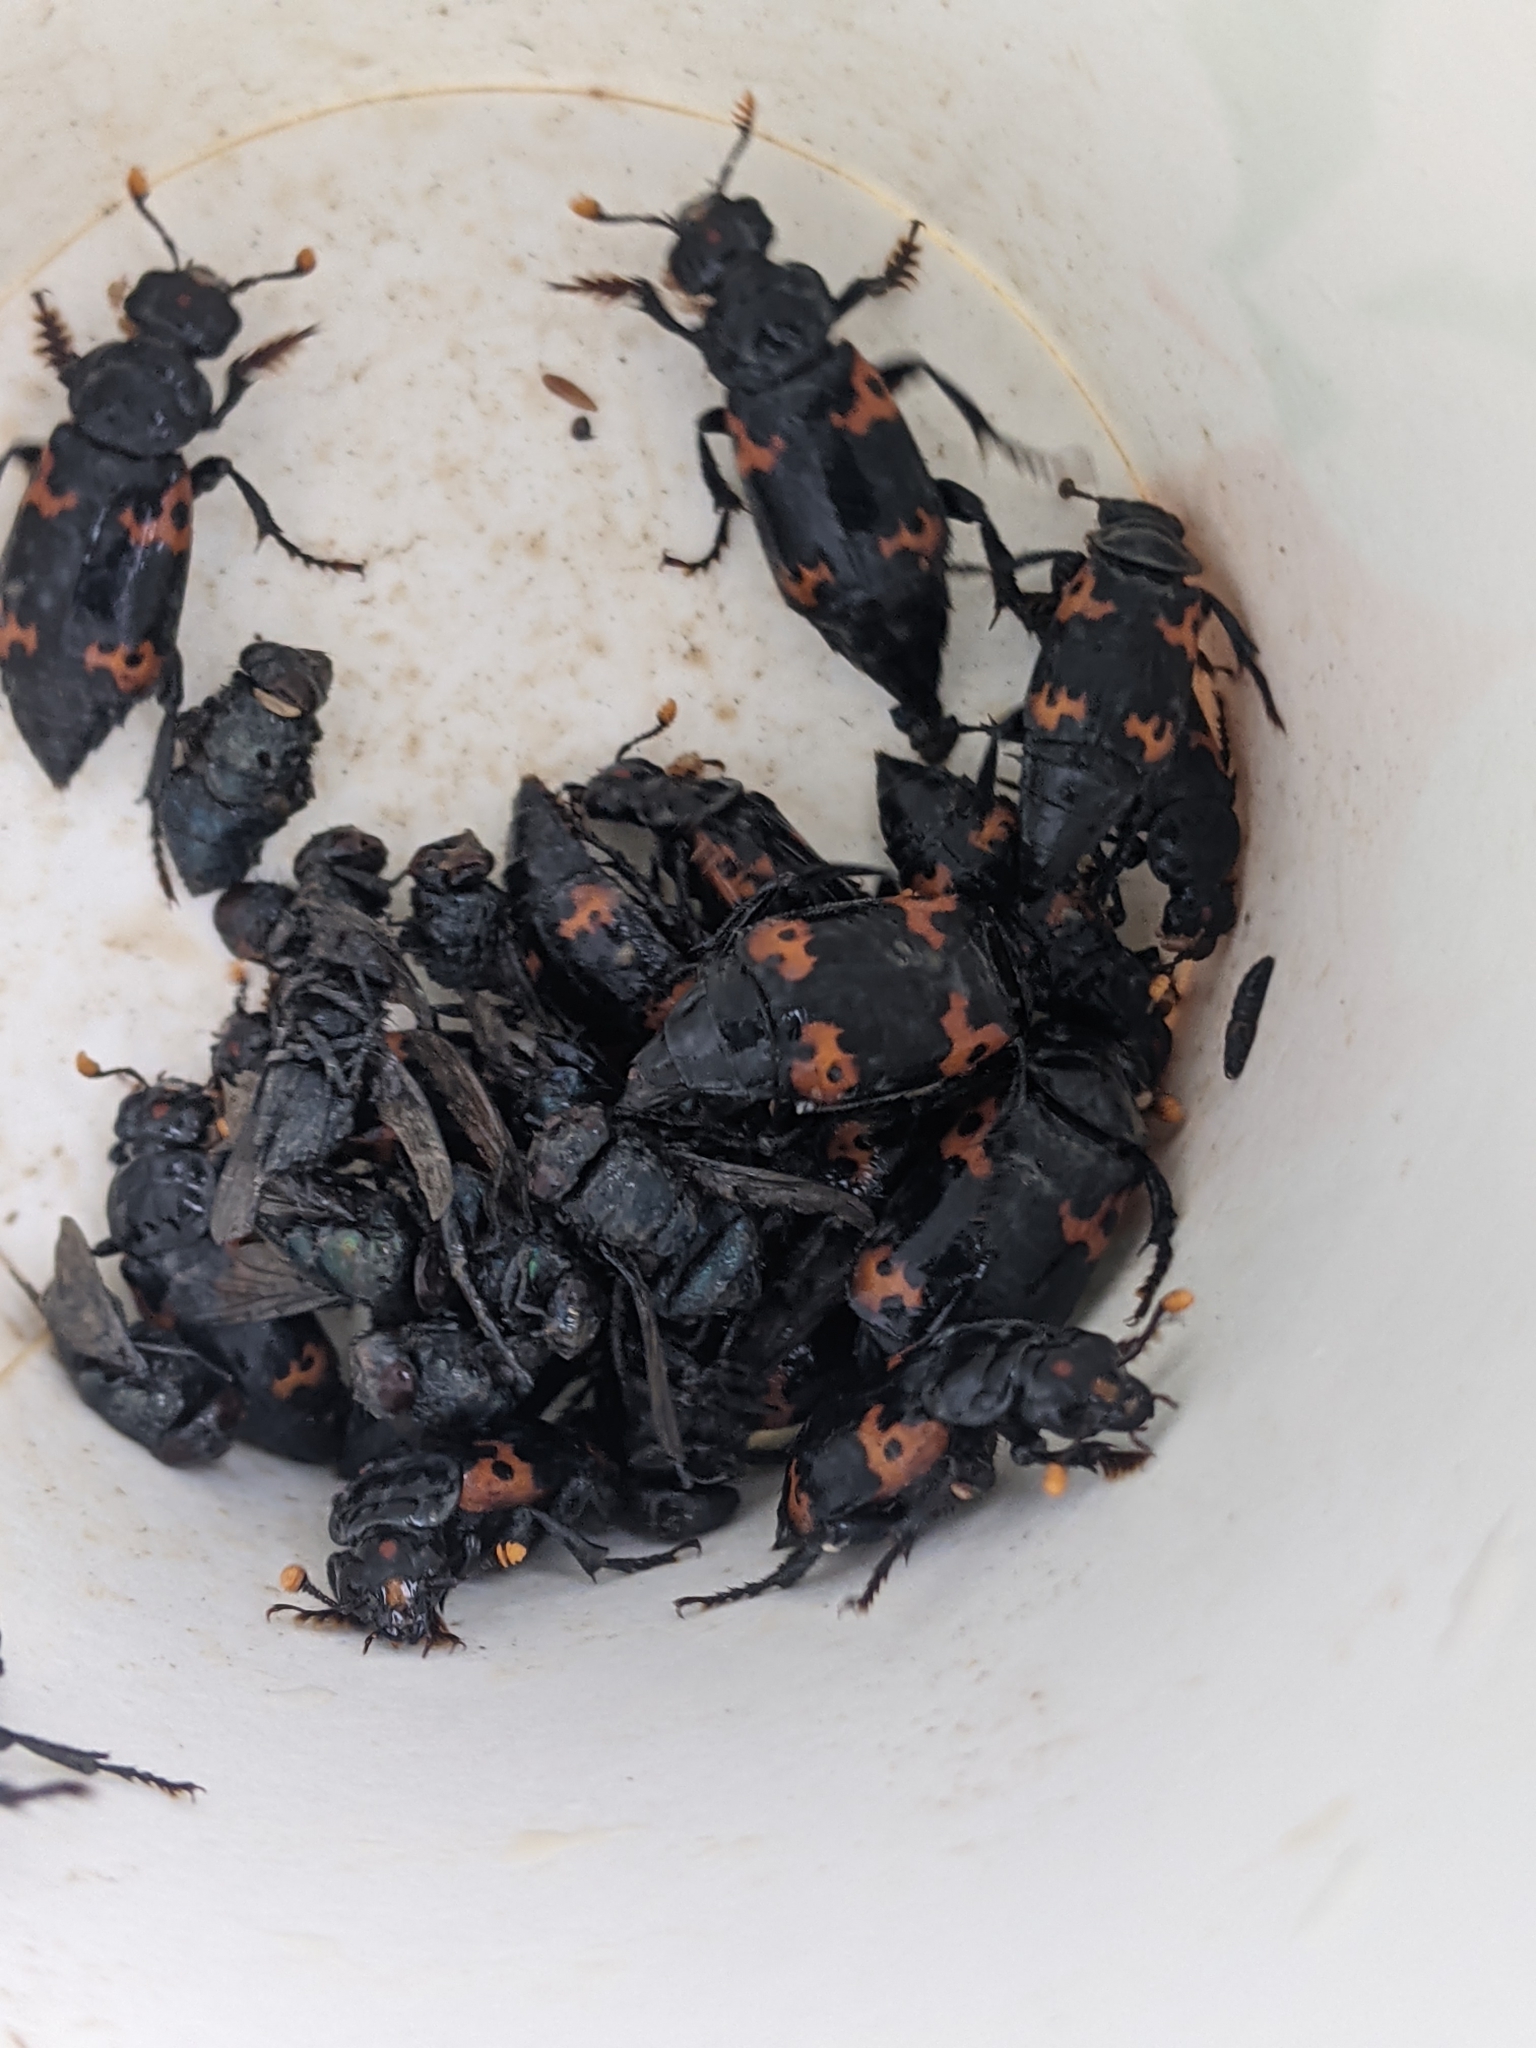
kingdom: Animalia
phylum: Arthropoda
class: Insecta
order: Coleoptera
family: Staphylinidae
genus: Nicrophorus
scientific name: Nicrophorus nepalensis
